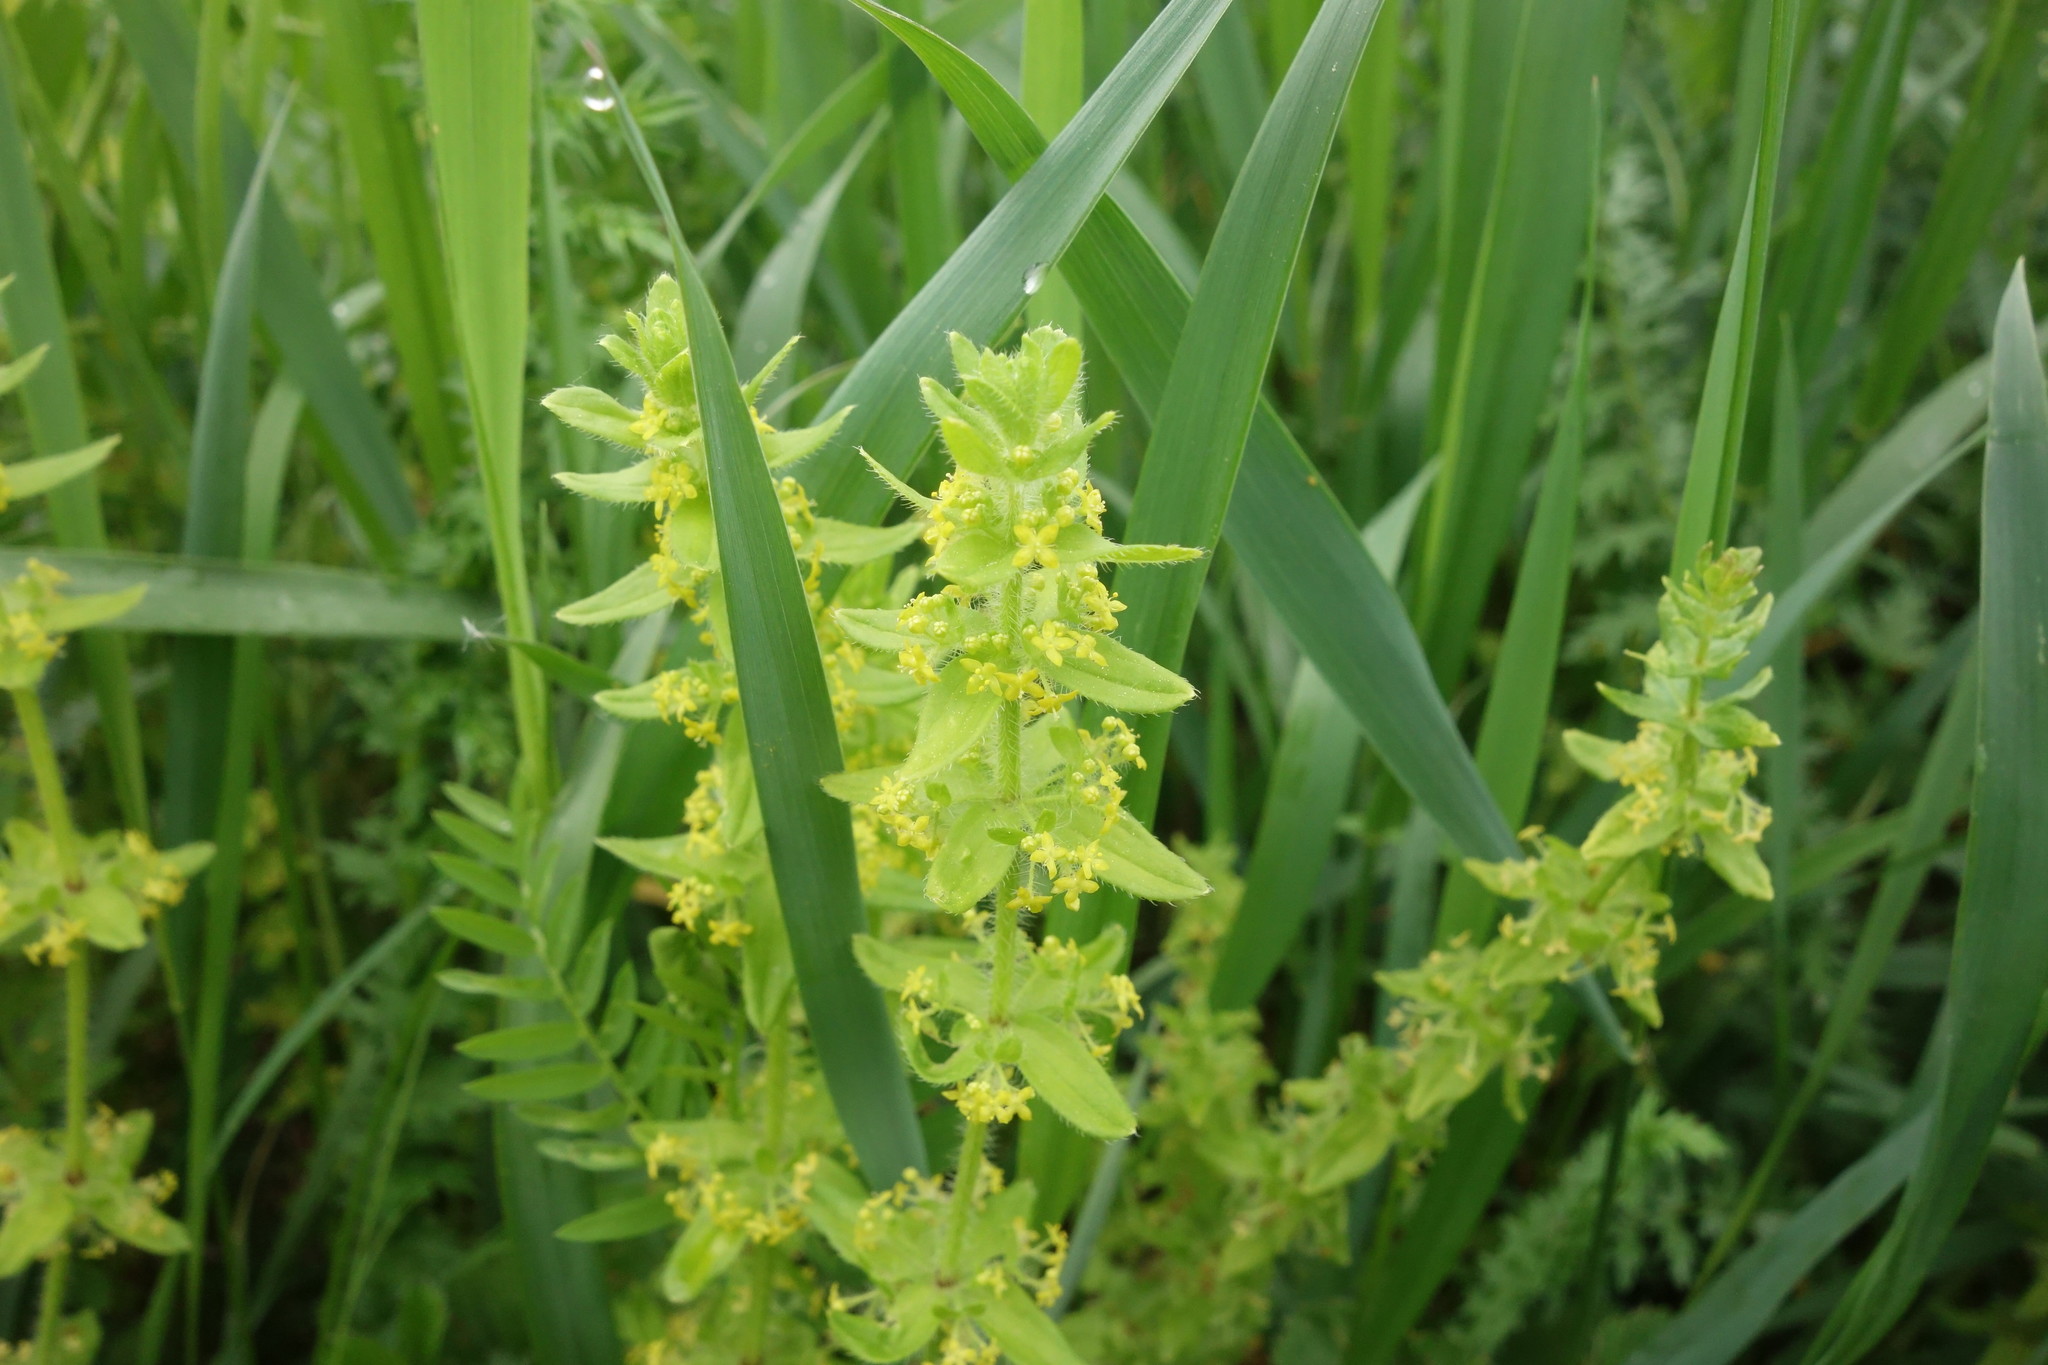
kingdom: Plantae
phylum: Tracheophyta
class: Magnoliopsida
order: Gentianales
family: Rubiaceae
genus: Cruciata
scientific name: Cruciata laevipes
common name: Crosswort
